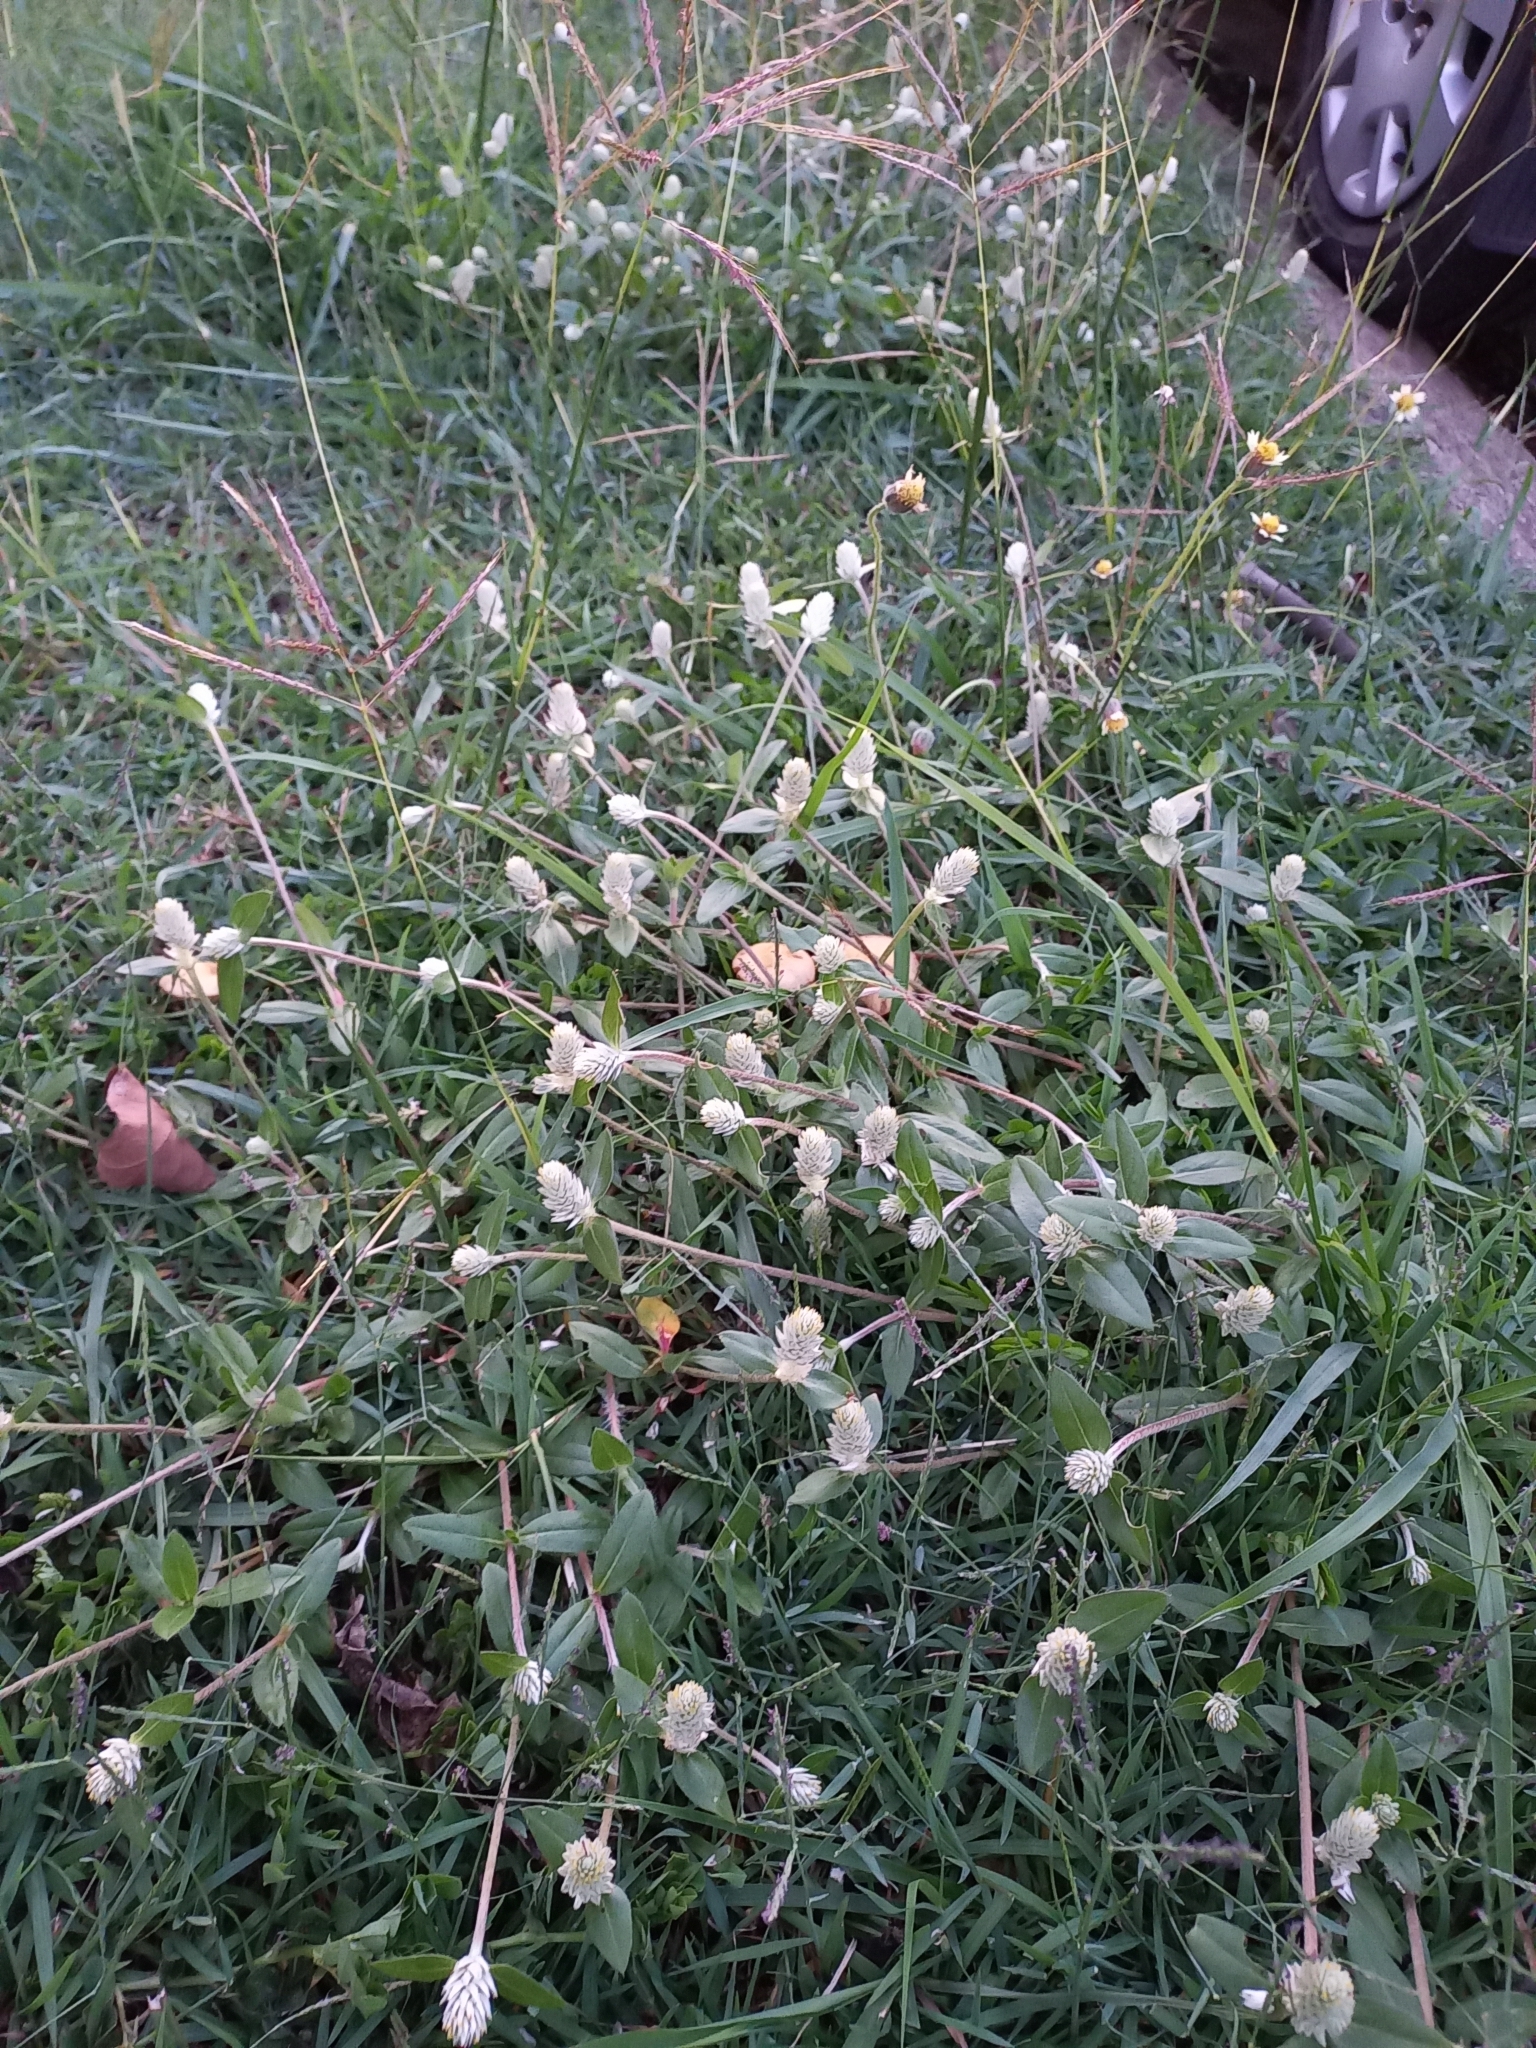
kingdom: Plantae
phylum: Tracheophyta
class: Magnoliopsida
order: Caryophyllales
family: Amaranthaceae
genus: Gomphrena
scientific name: Gomphrena celosioides
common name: Gomphrena-weed
